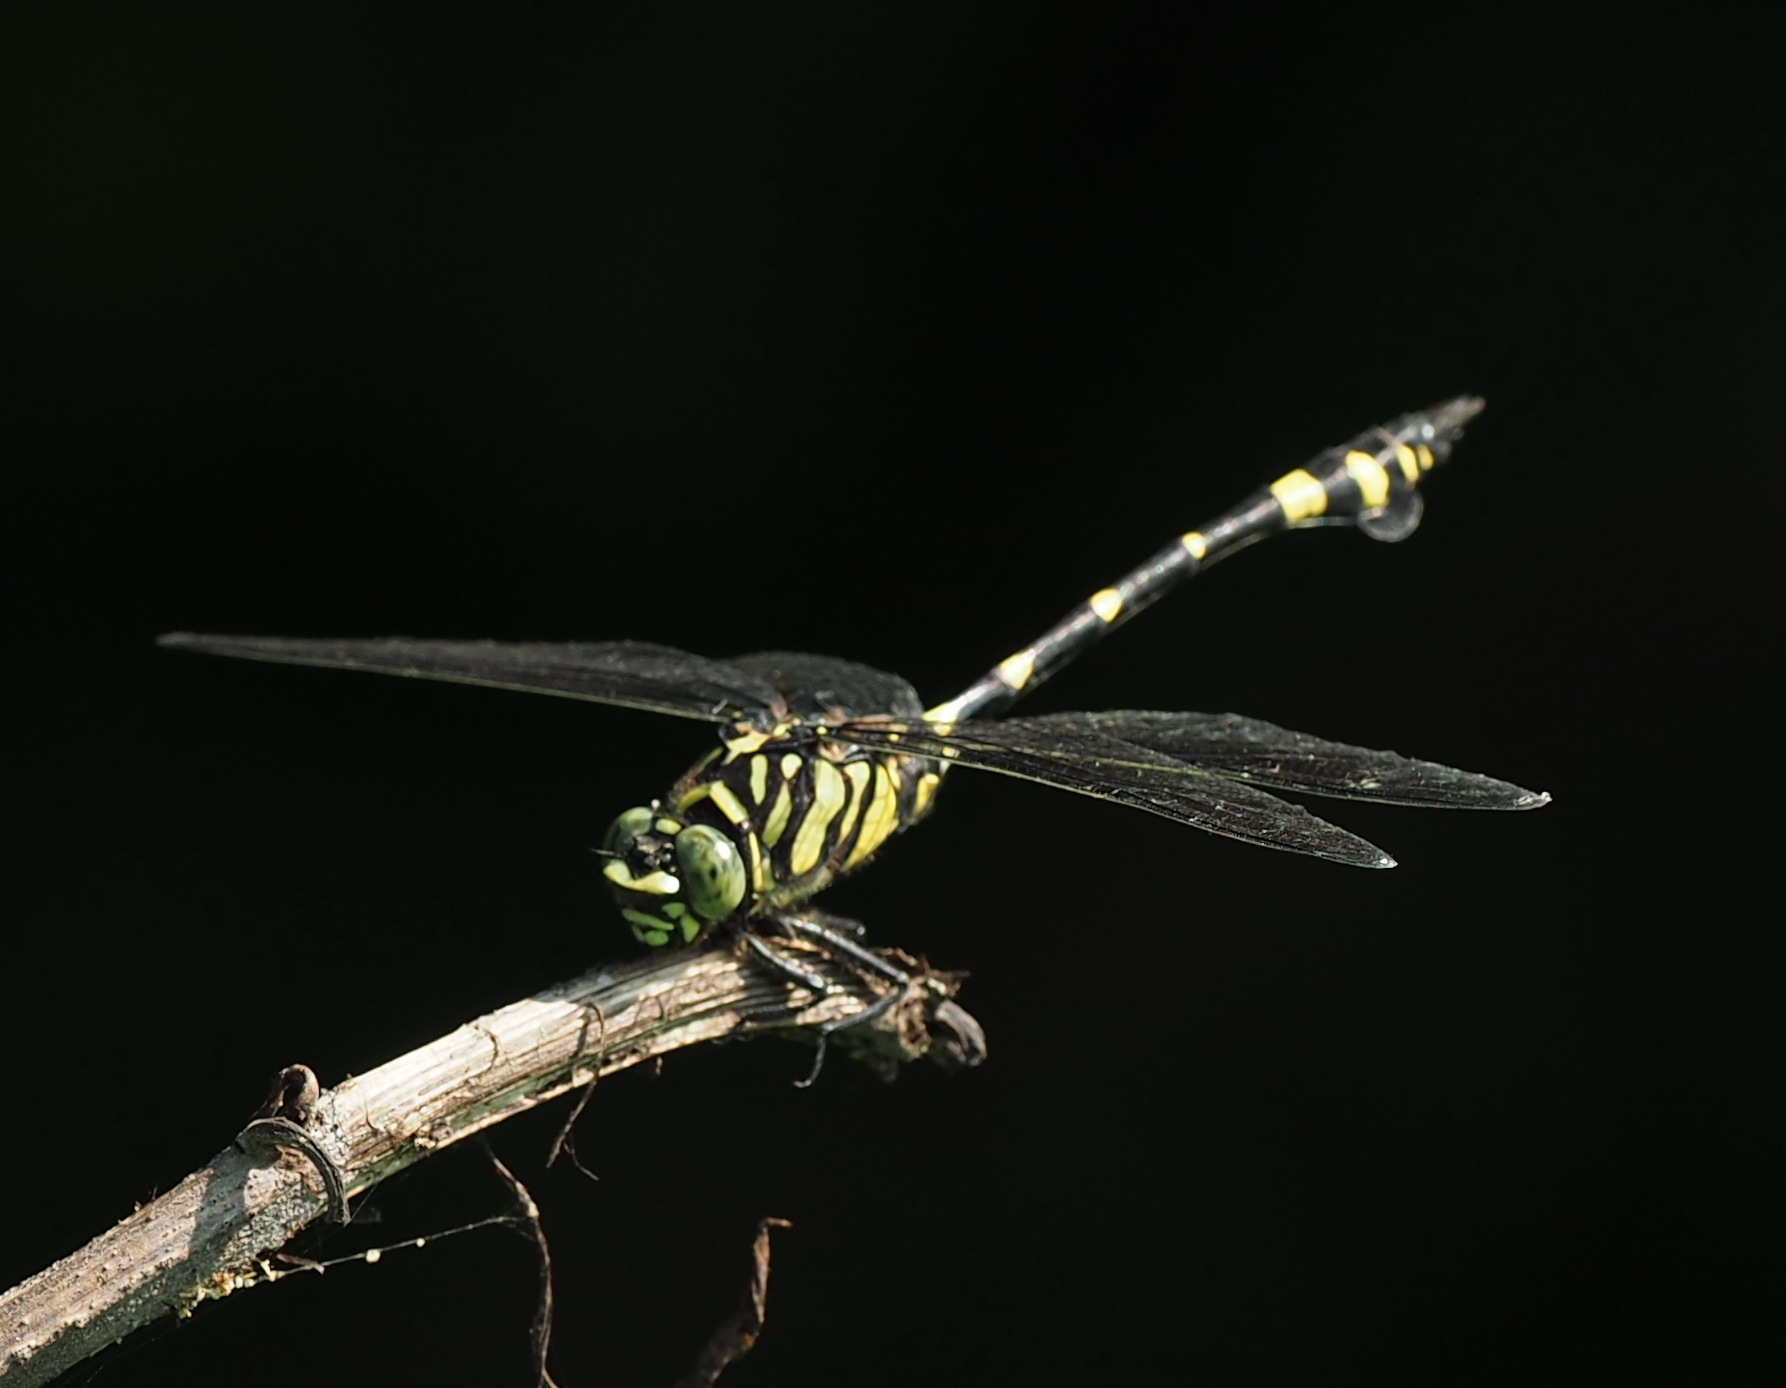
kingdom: Animalia
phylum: Arthropoda
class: Insecta
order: Odonata
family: Gomphidae
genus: Ictinogomphus
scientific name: Ictinogomphus rapax
